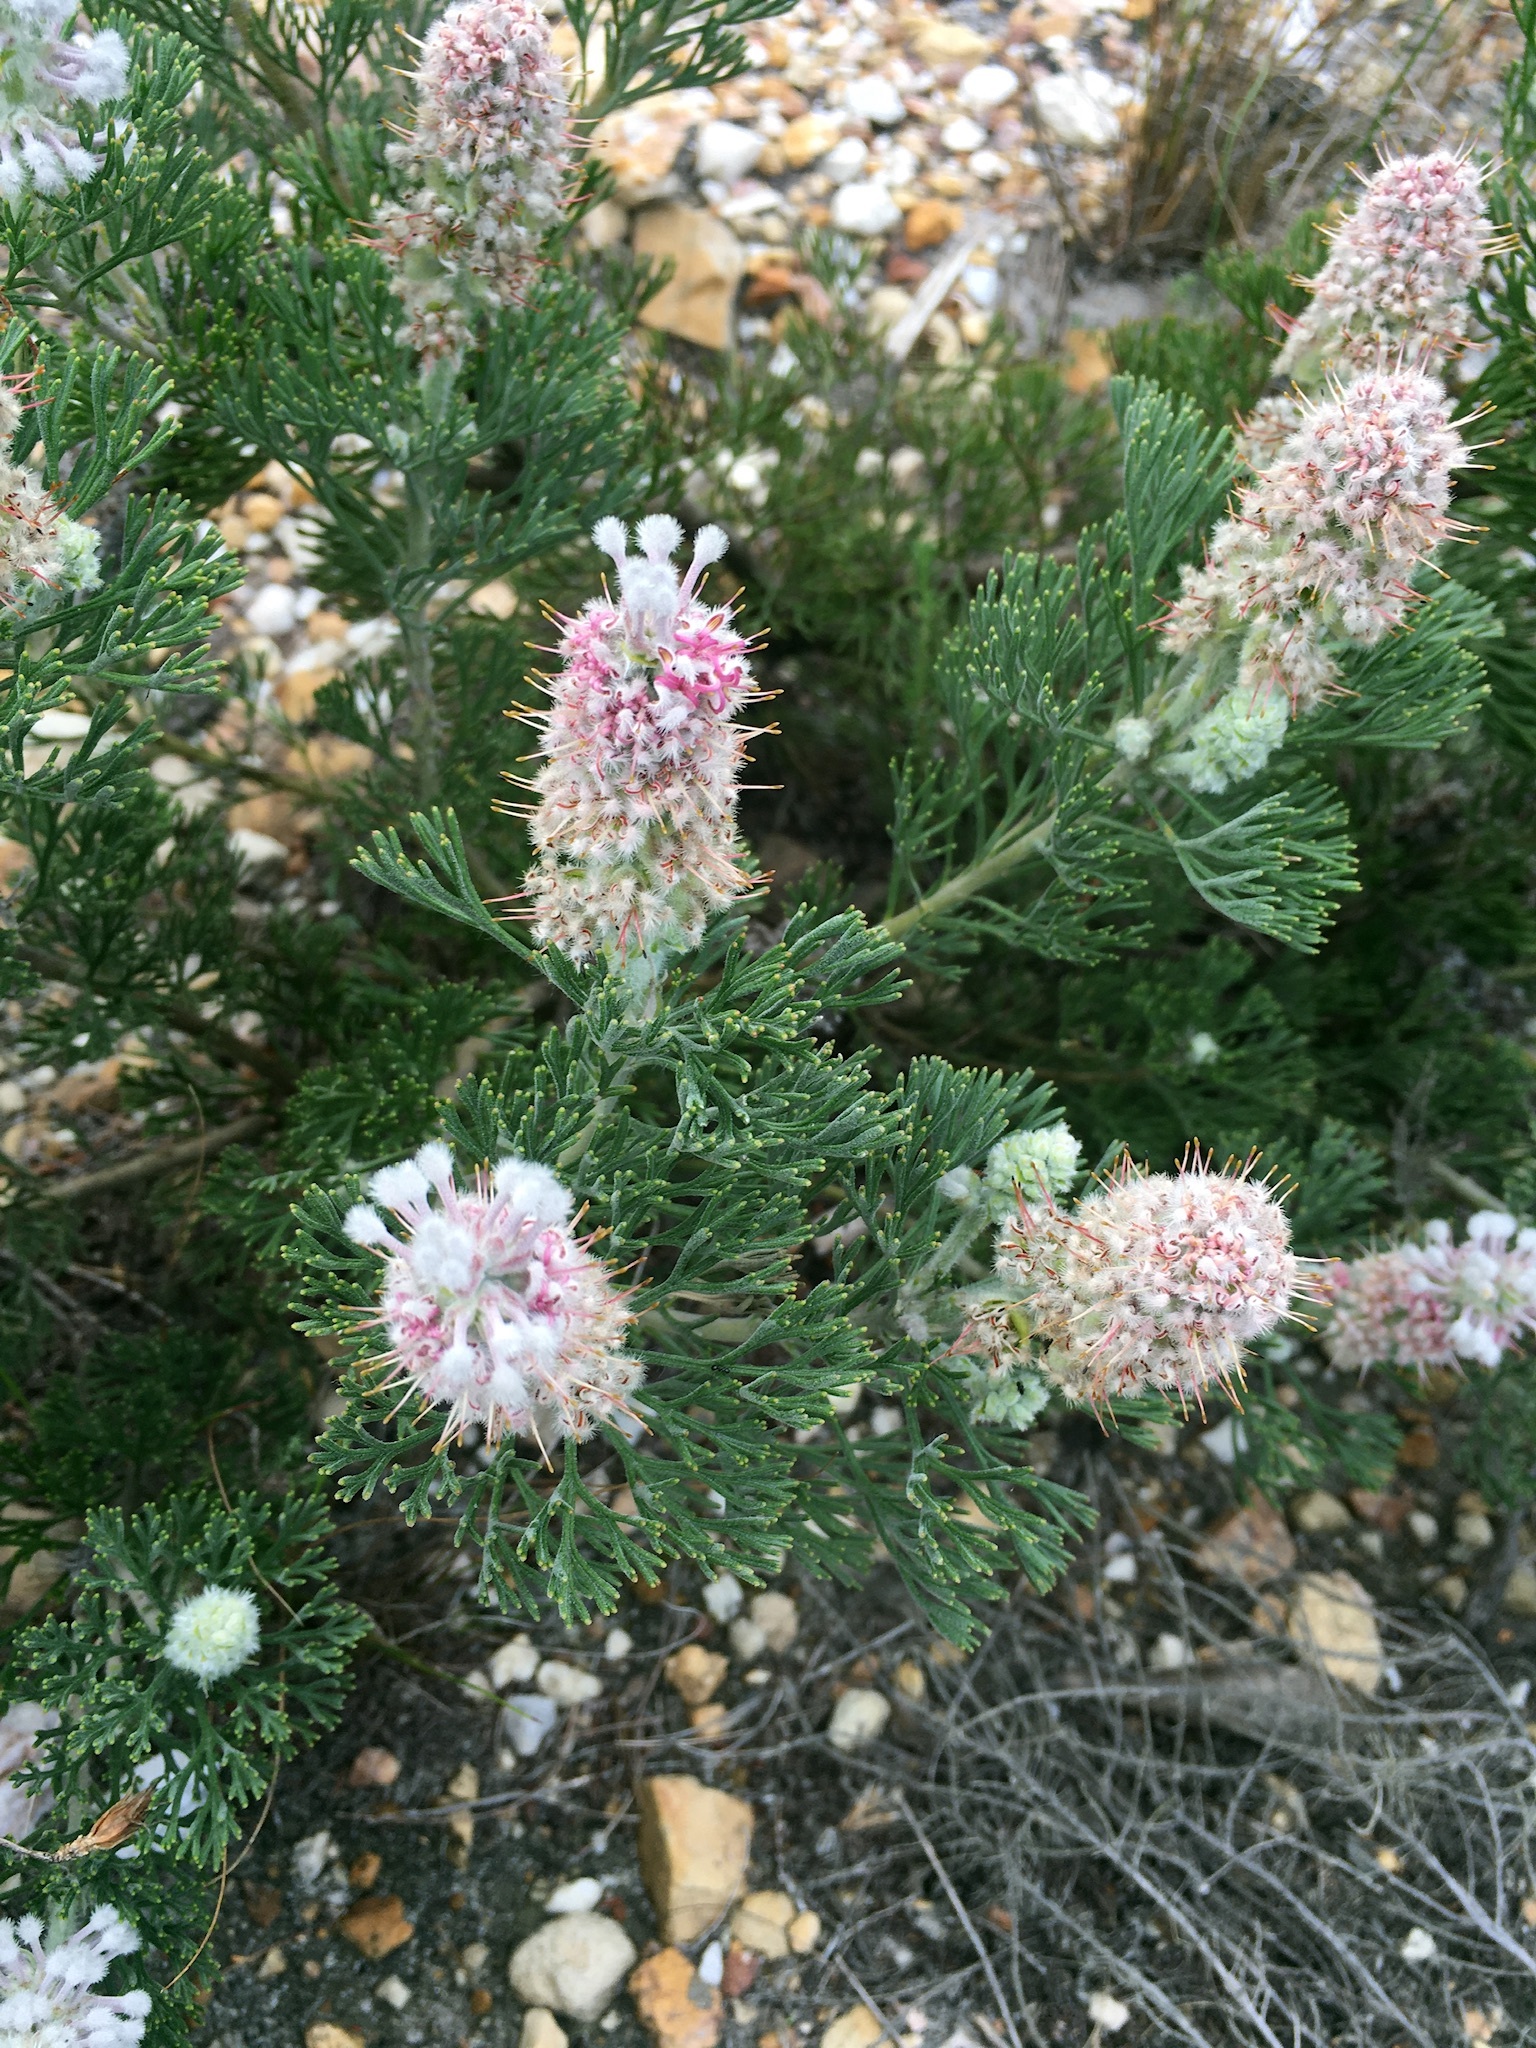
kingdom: Plantae
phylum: Tracheophyta
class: Magnoliopsida
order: Proteales
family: Proteaceae
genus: Paranomus
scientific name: Paranomus abrotanifolius
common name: Bredasdorp sceptre
